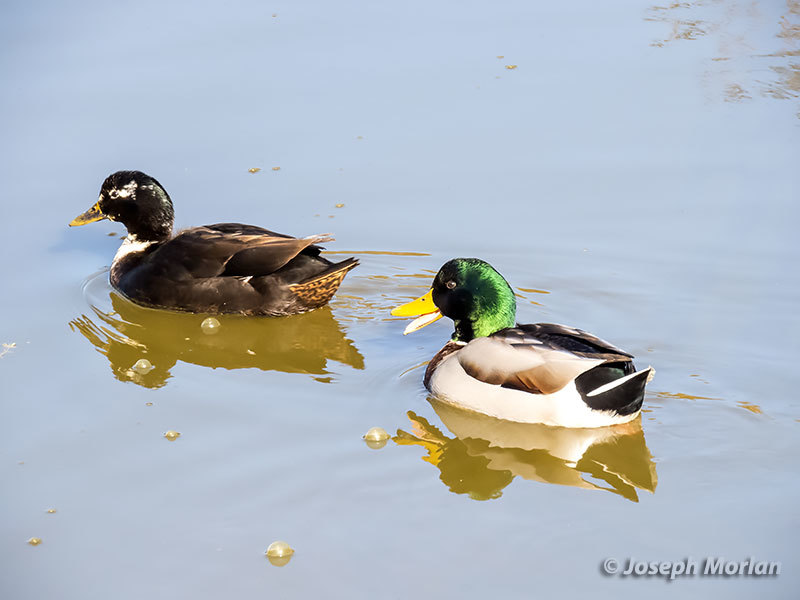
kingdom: Animalia
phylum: Chordata
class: Aves
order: Anseriformes
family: Anatidae
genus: Anas
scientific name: Anas platyrhynchos
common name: Mallard
